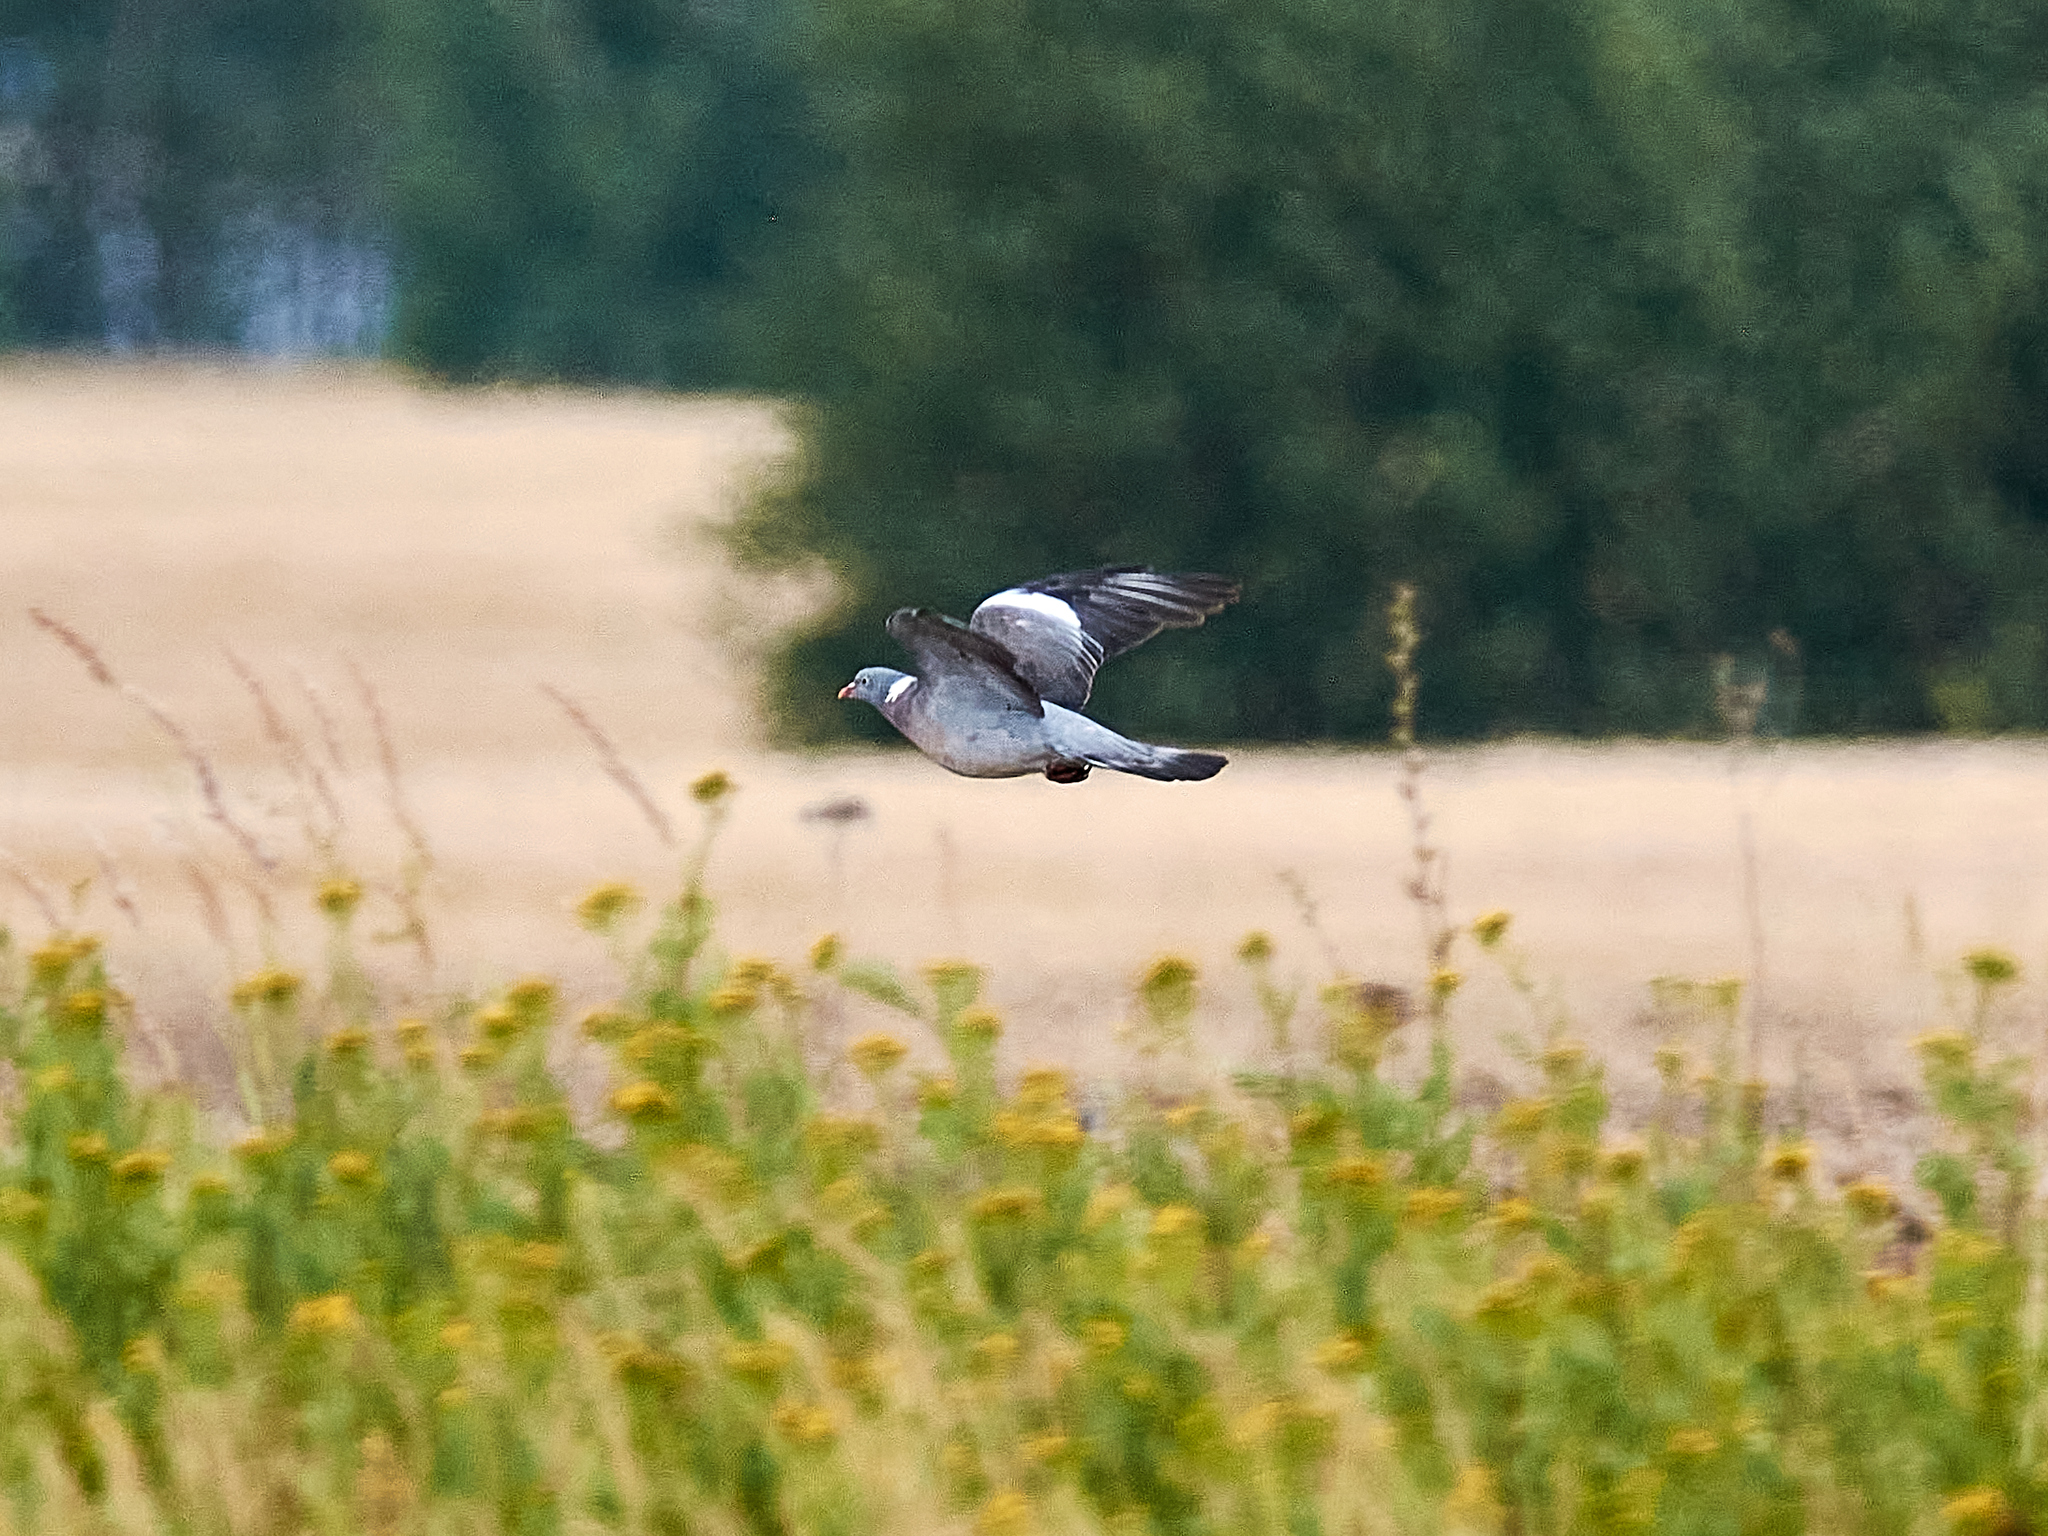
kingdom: Animalia
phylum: Chordata
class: Aves
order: Columbiformes
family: Columbidae
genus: Columba
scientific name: Columba palumbus
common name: Common wood pigeon
